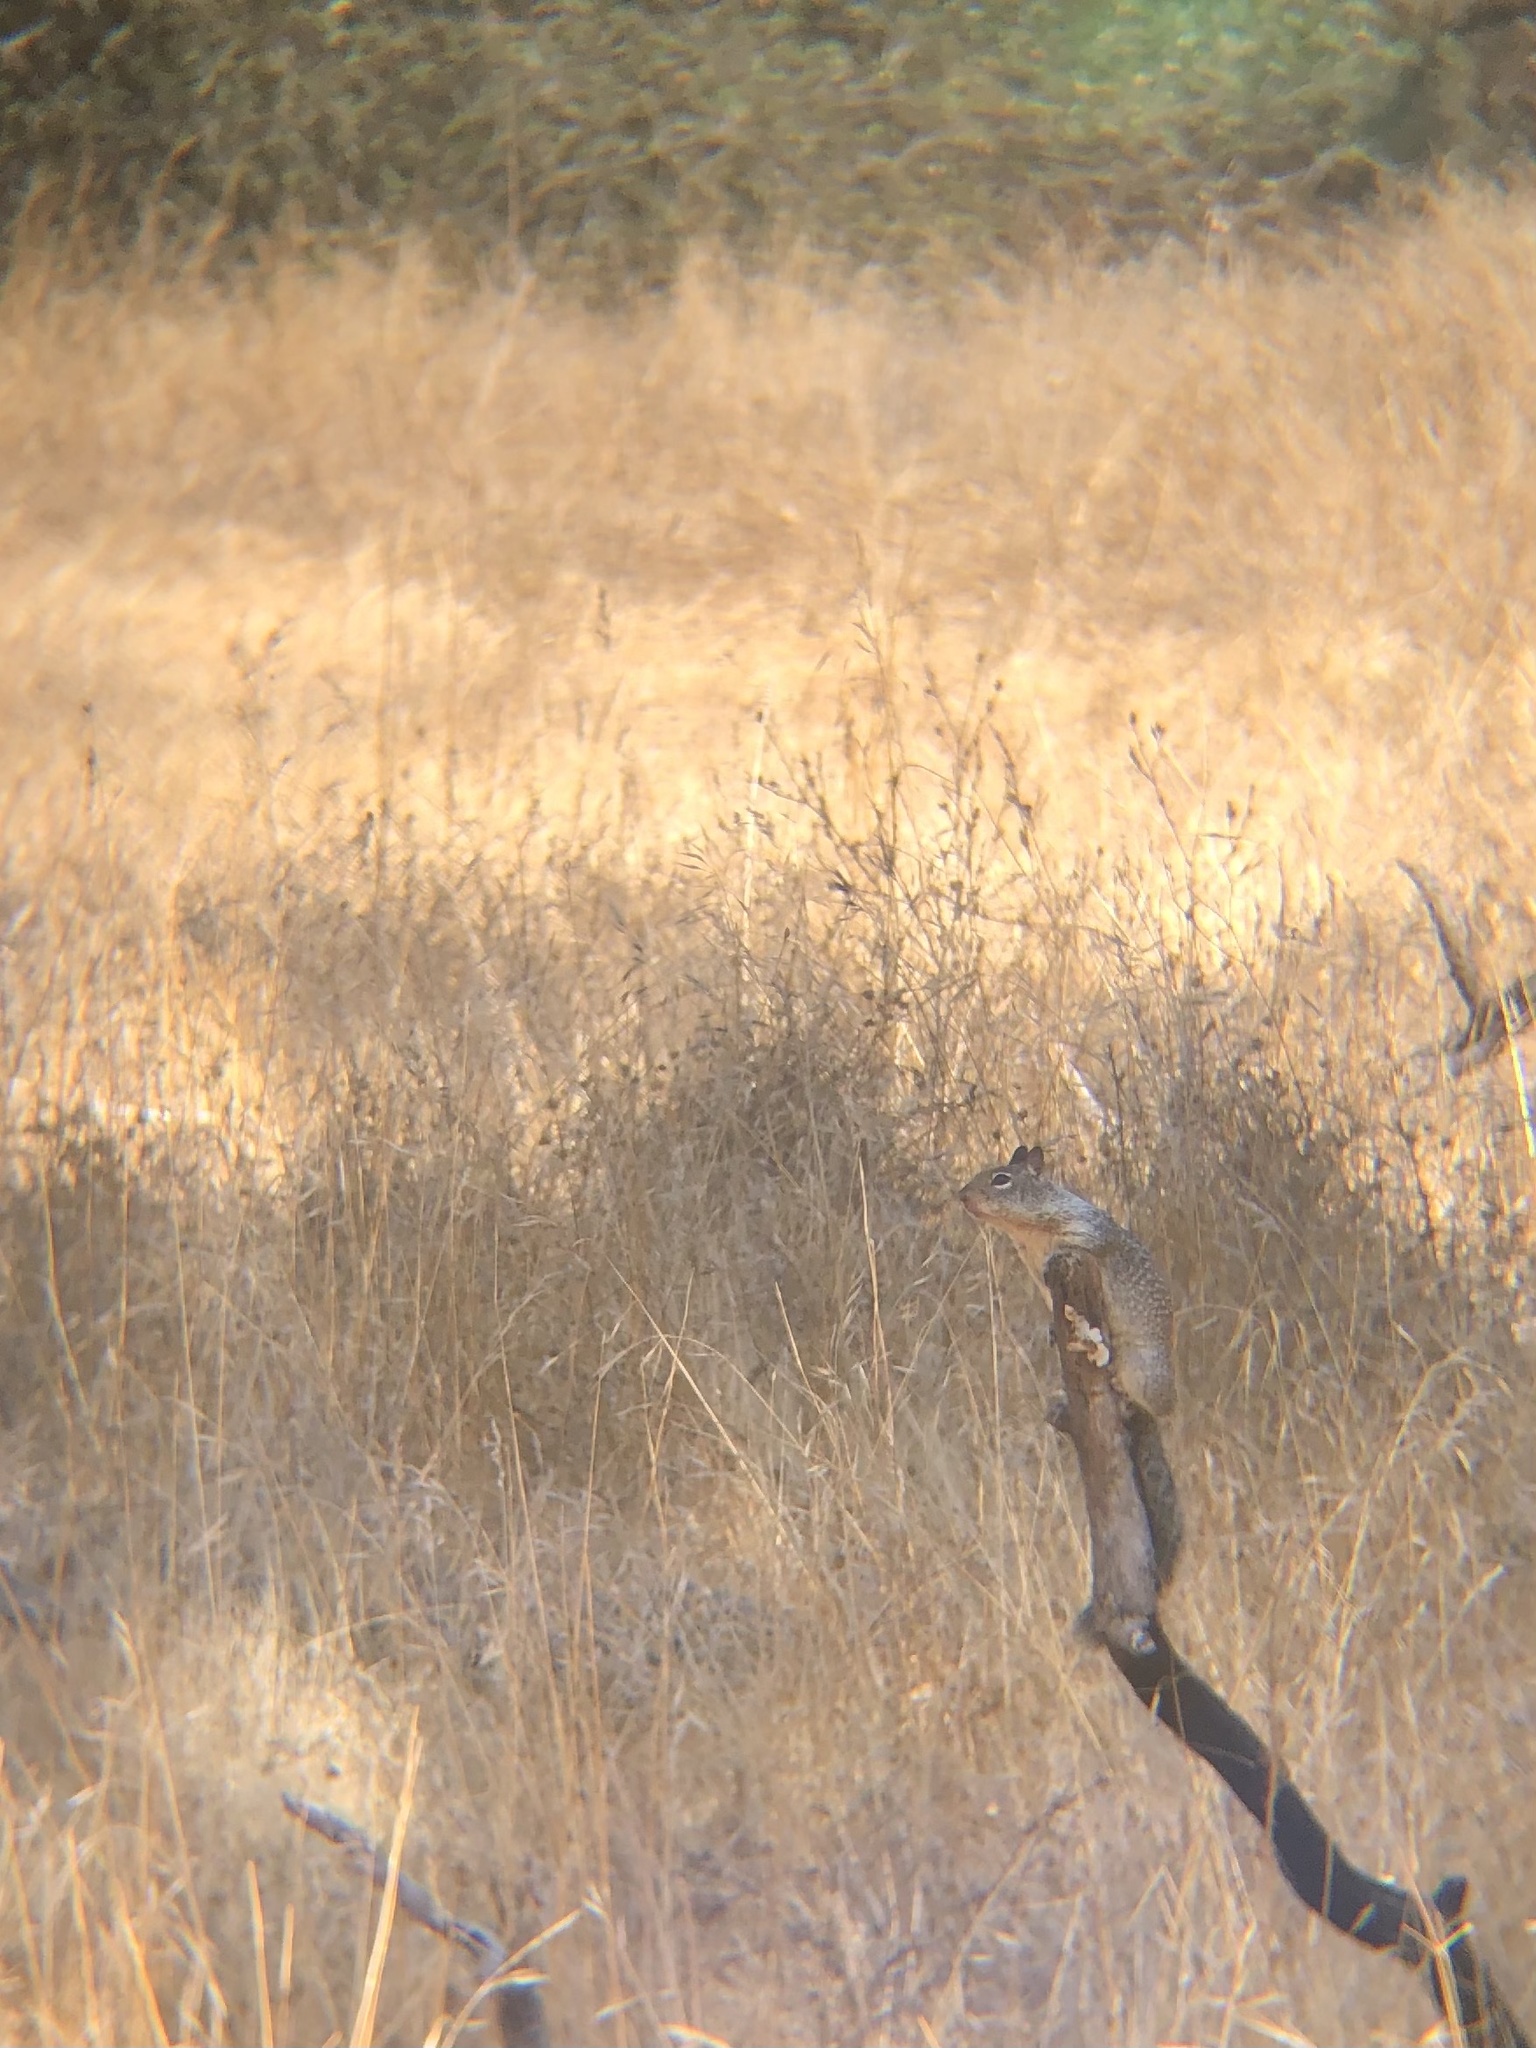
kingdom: Animalia
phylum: Chordata
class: Mammalia
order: Rodentia
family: Sciuridae
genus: Otospermophilus
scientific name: Otospermophilus beecheyi
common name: California ground squirrel
